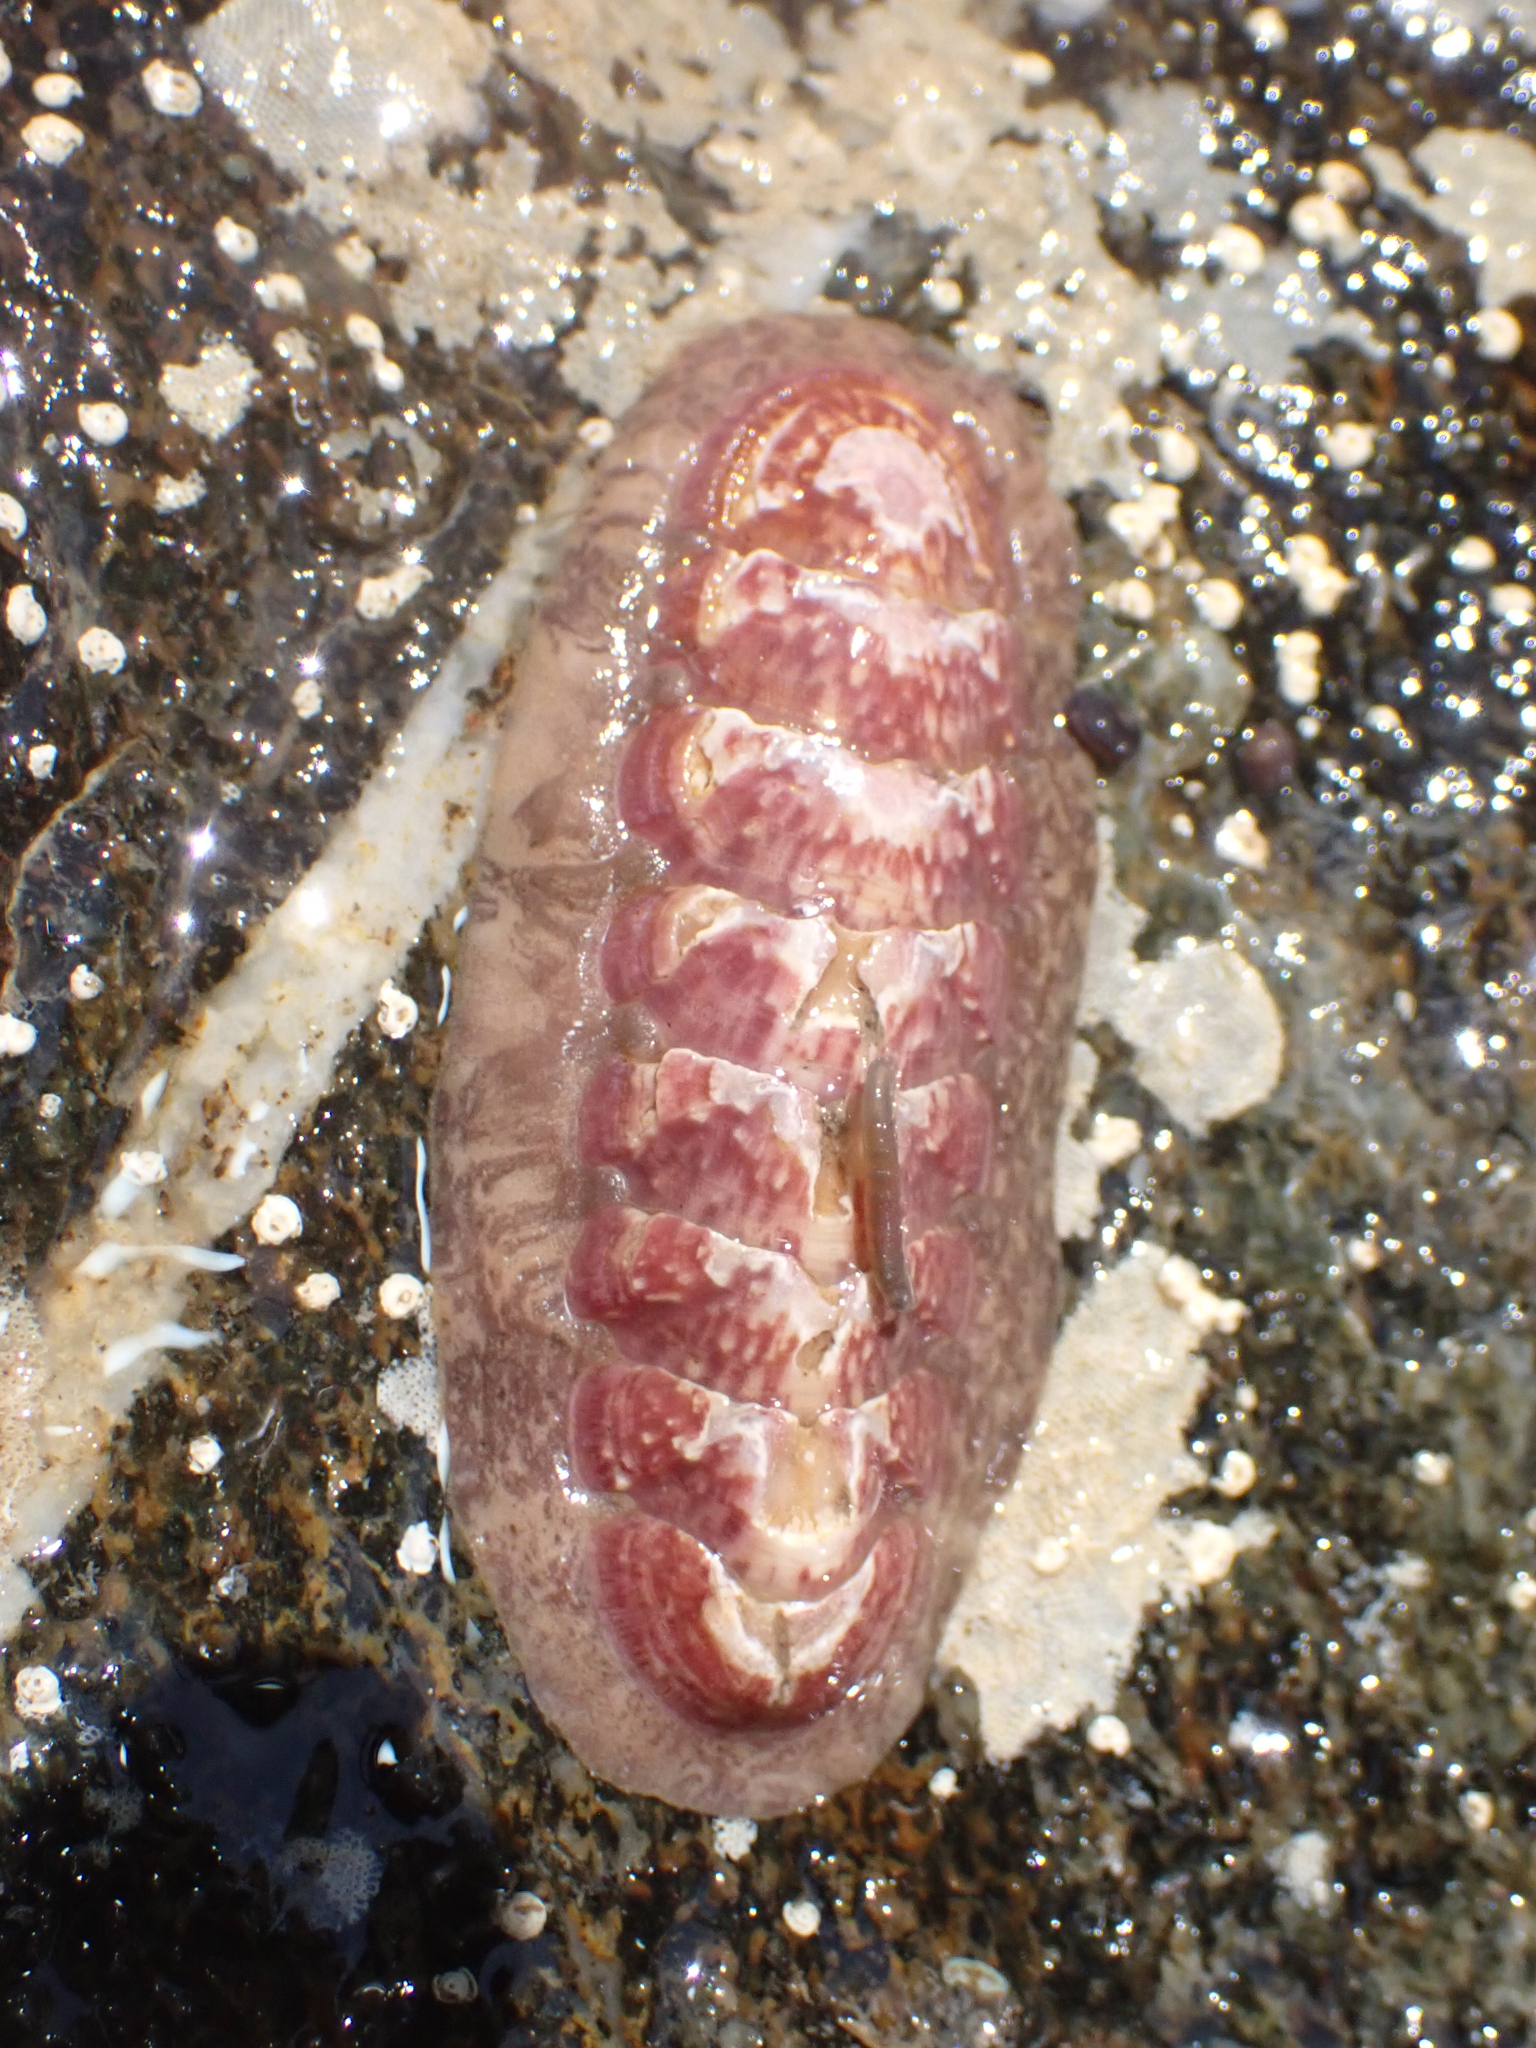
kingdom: Animalia
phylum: Mollusca
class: Polyplacophora
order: Chitonida
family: Ischnochitonidae
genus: Stenoplax
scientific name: Stenoplax fallax
